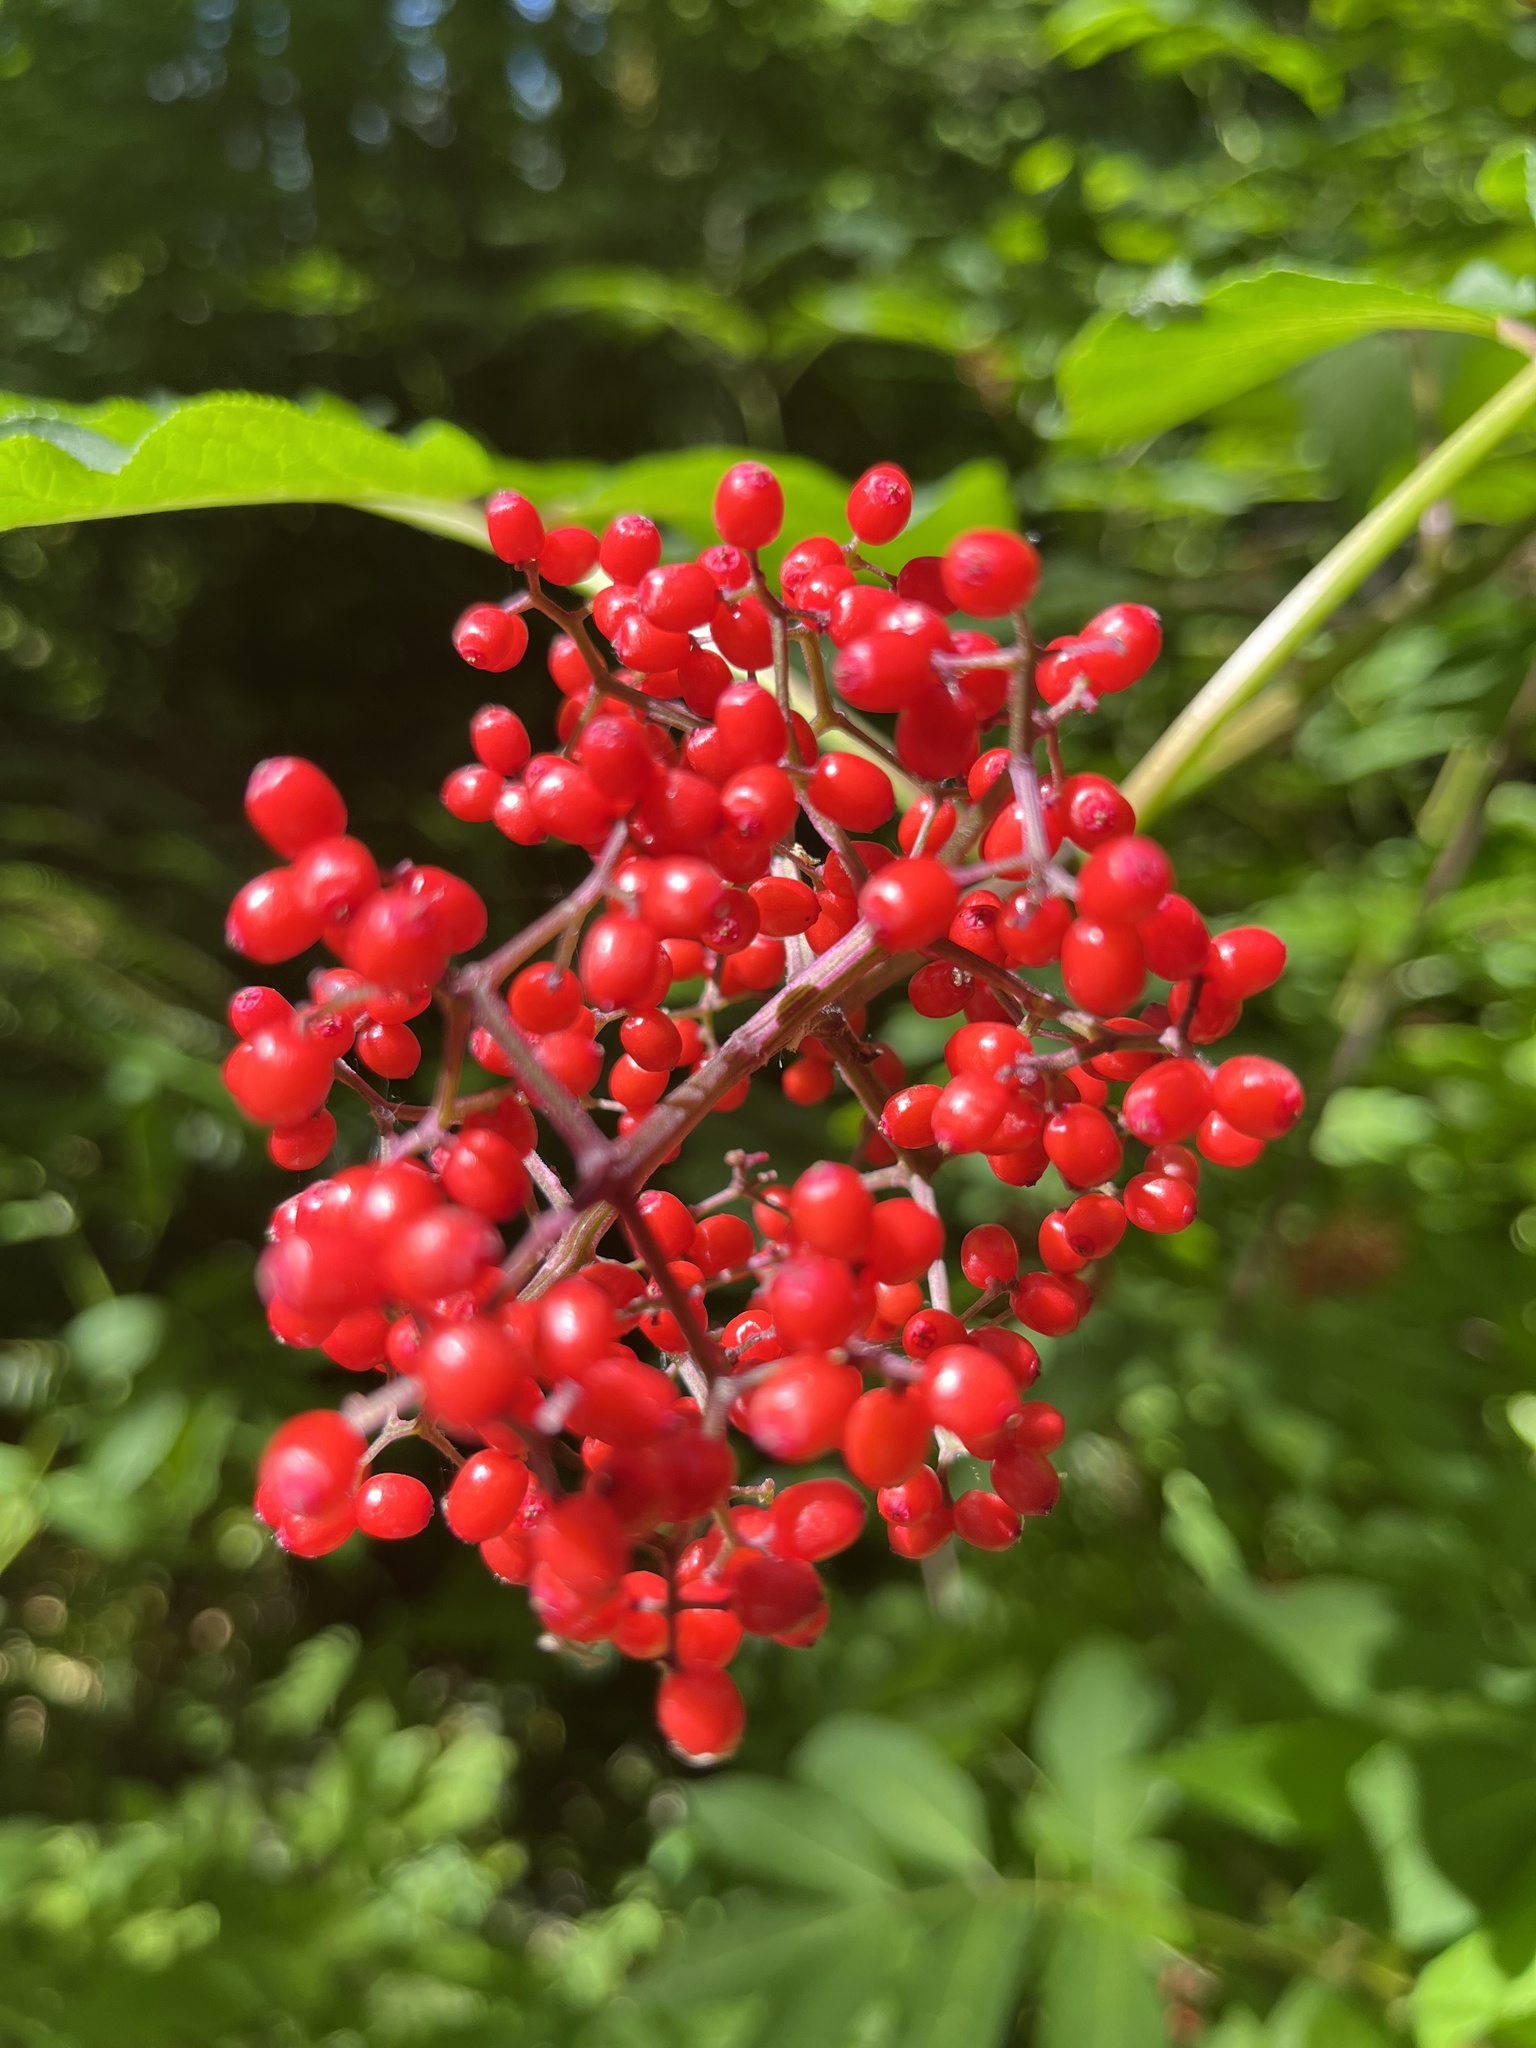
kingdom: Plantae
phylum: Tracheophyta
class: Magnoliopsida
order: Dipsacales
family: Viburnaceae
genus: Sambucus
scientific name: Sambucus racemosa
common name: Red-berried elder
